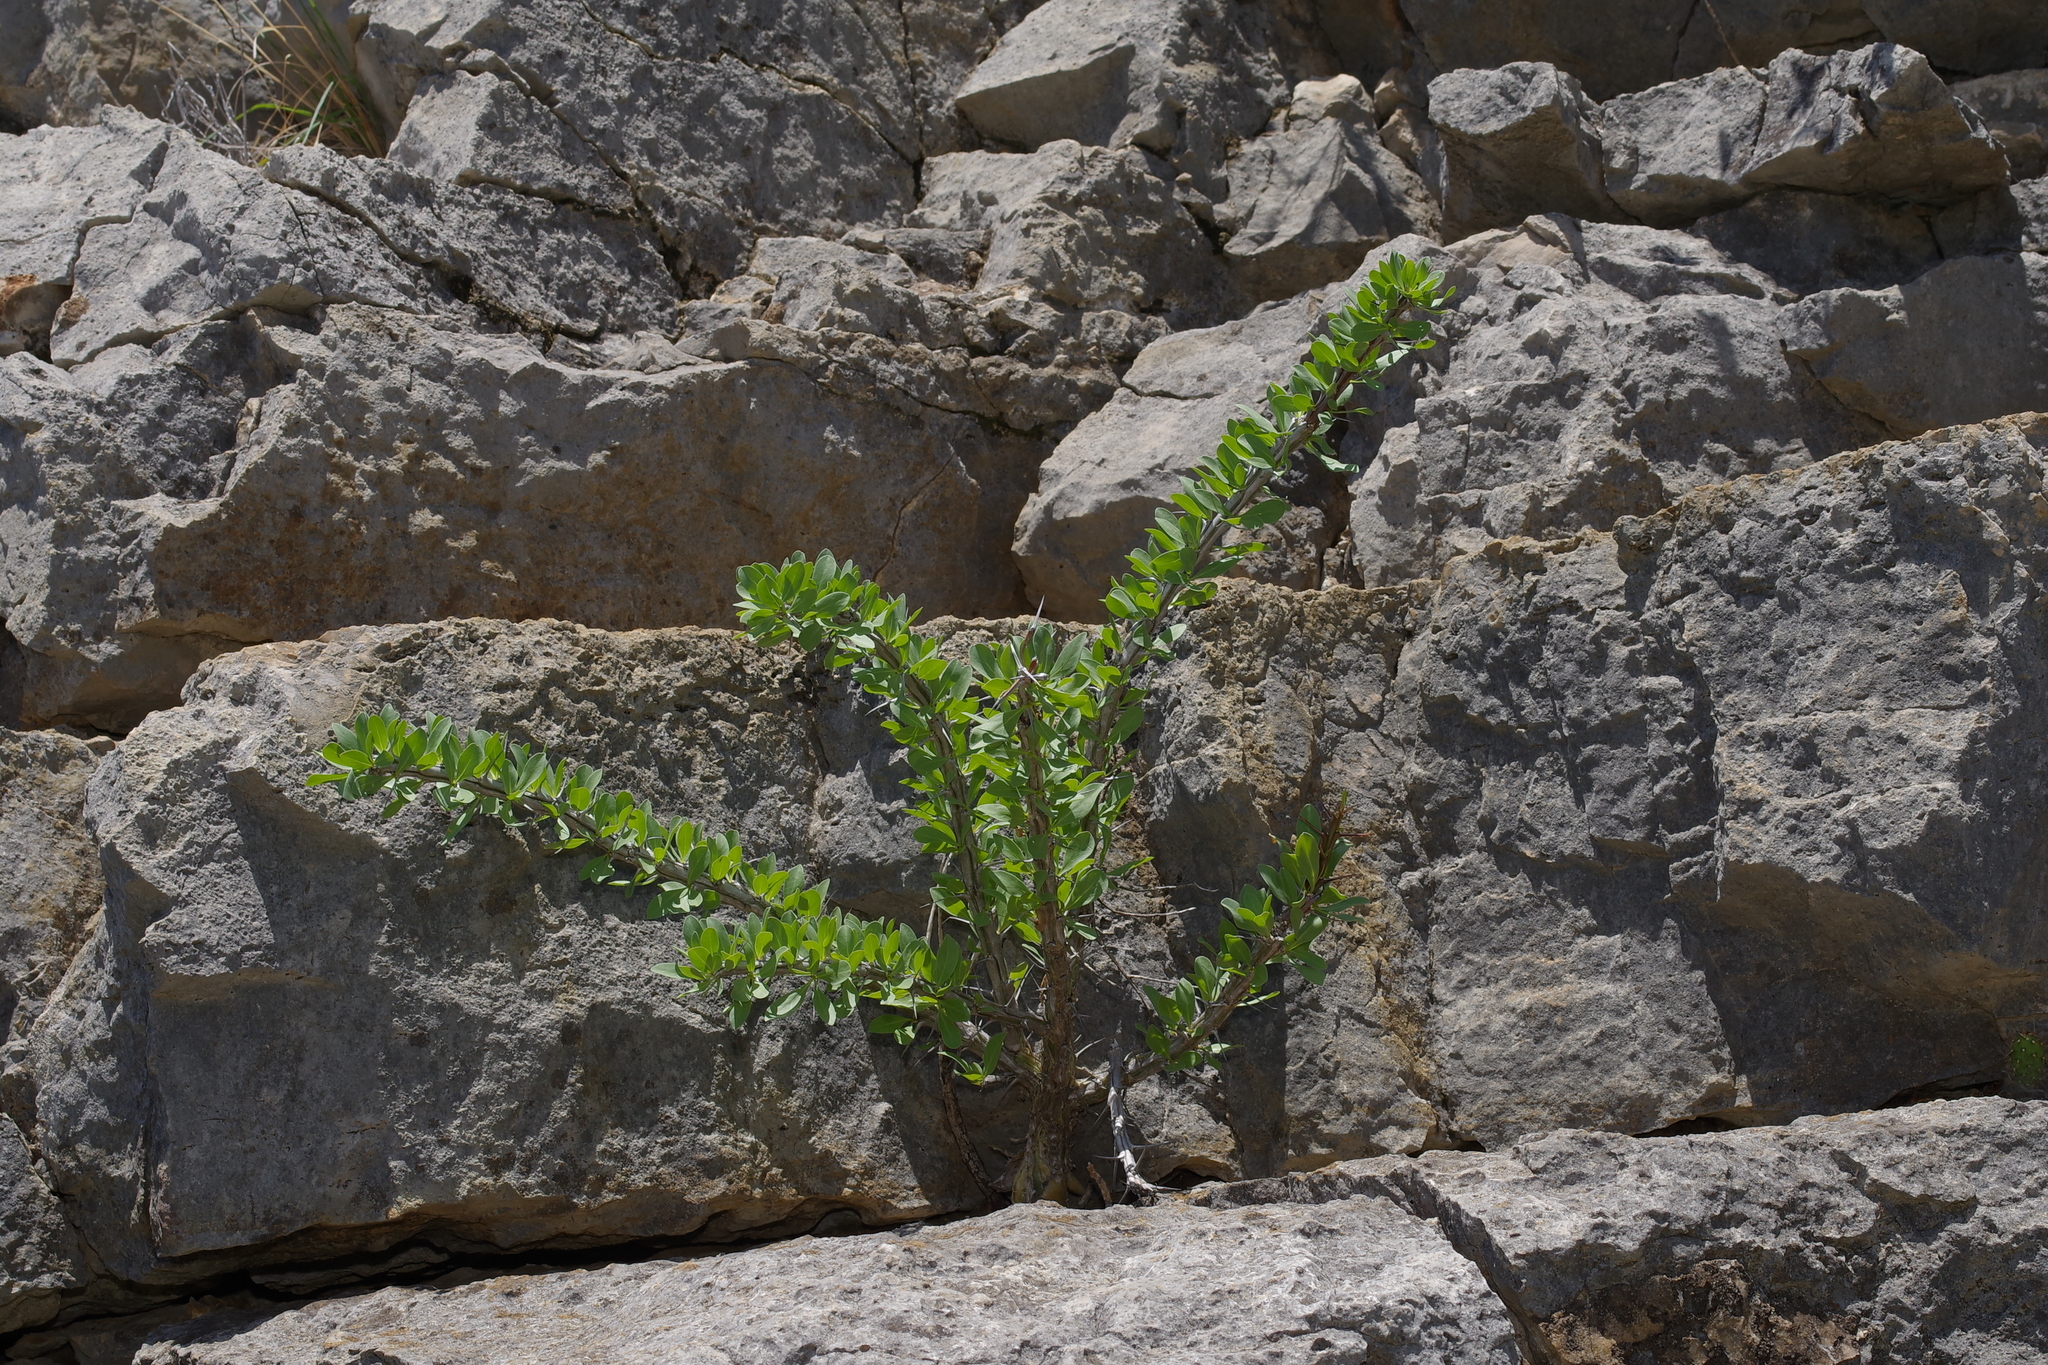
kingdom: Plantae
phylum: Tracheophyta
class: Magnoliopsida
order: Ericales
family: Fouquieriaceae
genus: Fouquieria
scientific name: Fouquieria splendens
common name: Vine-cactus
